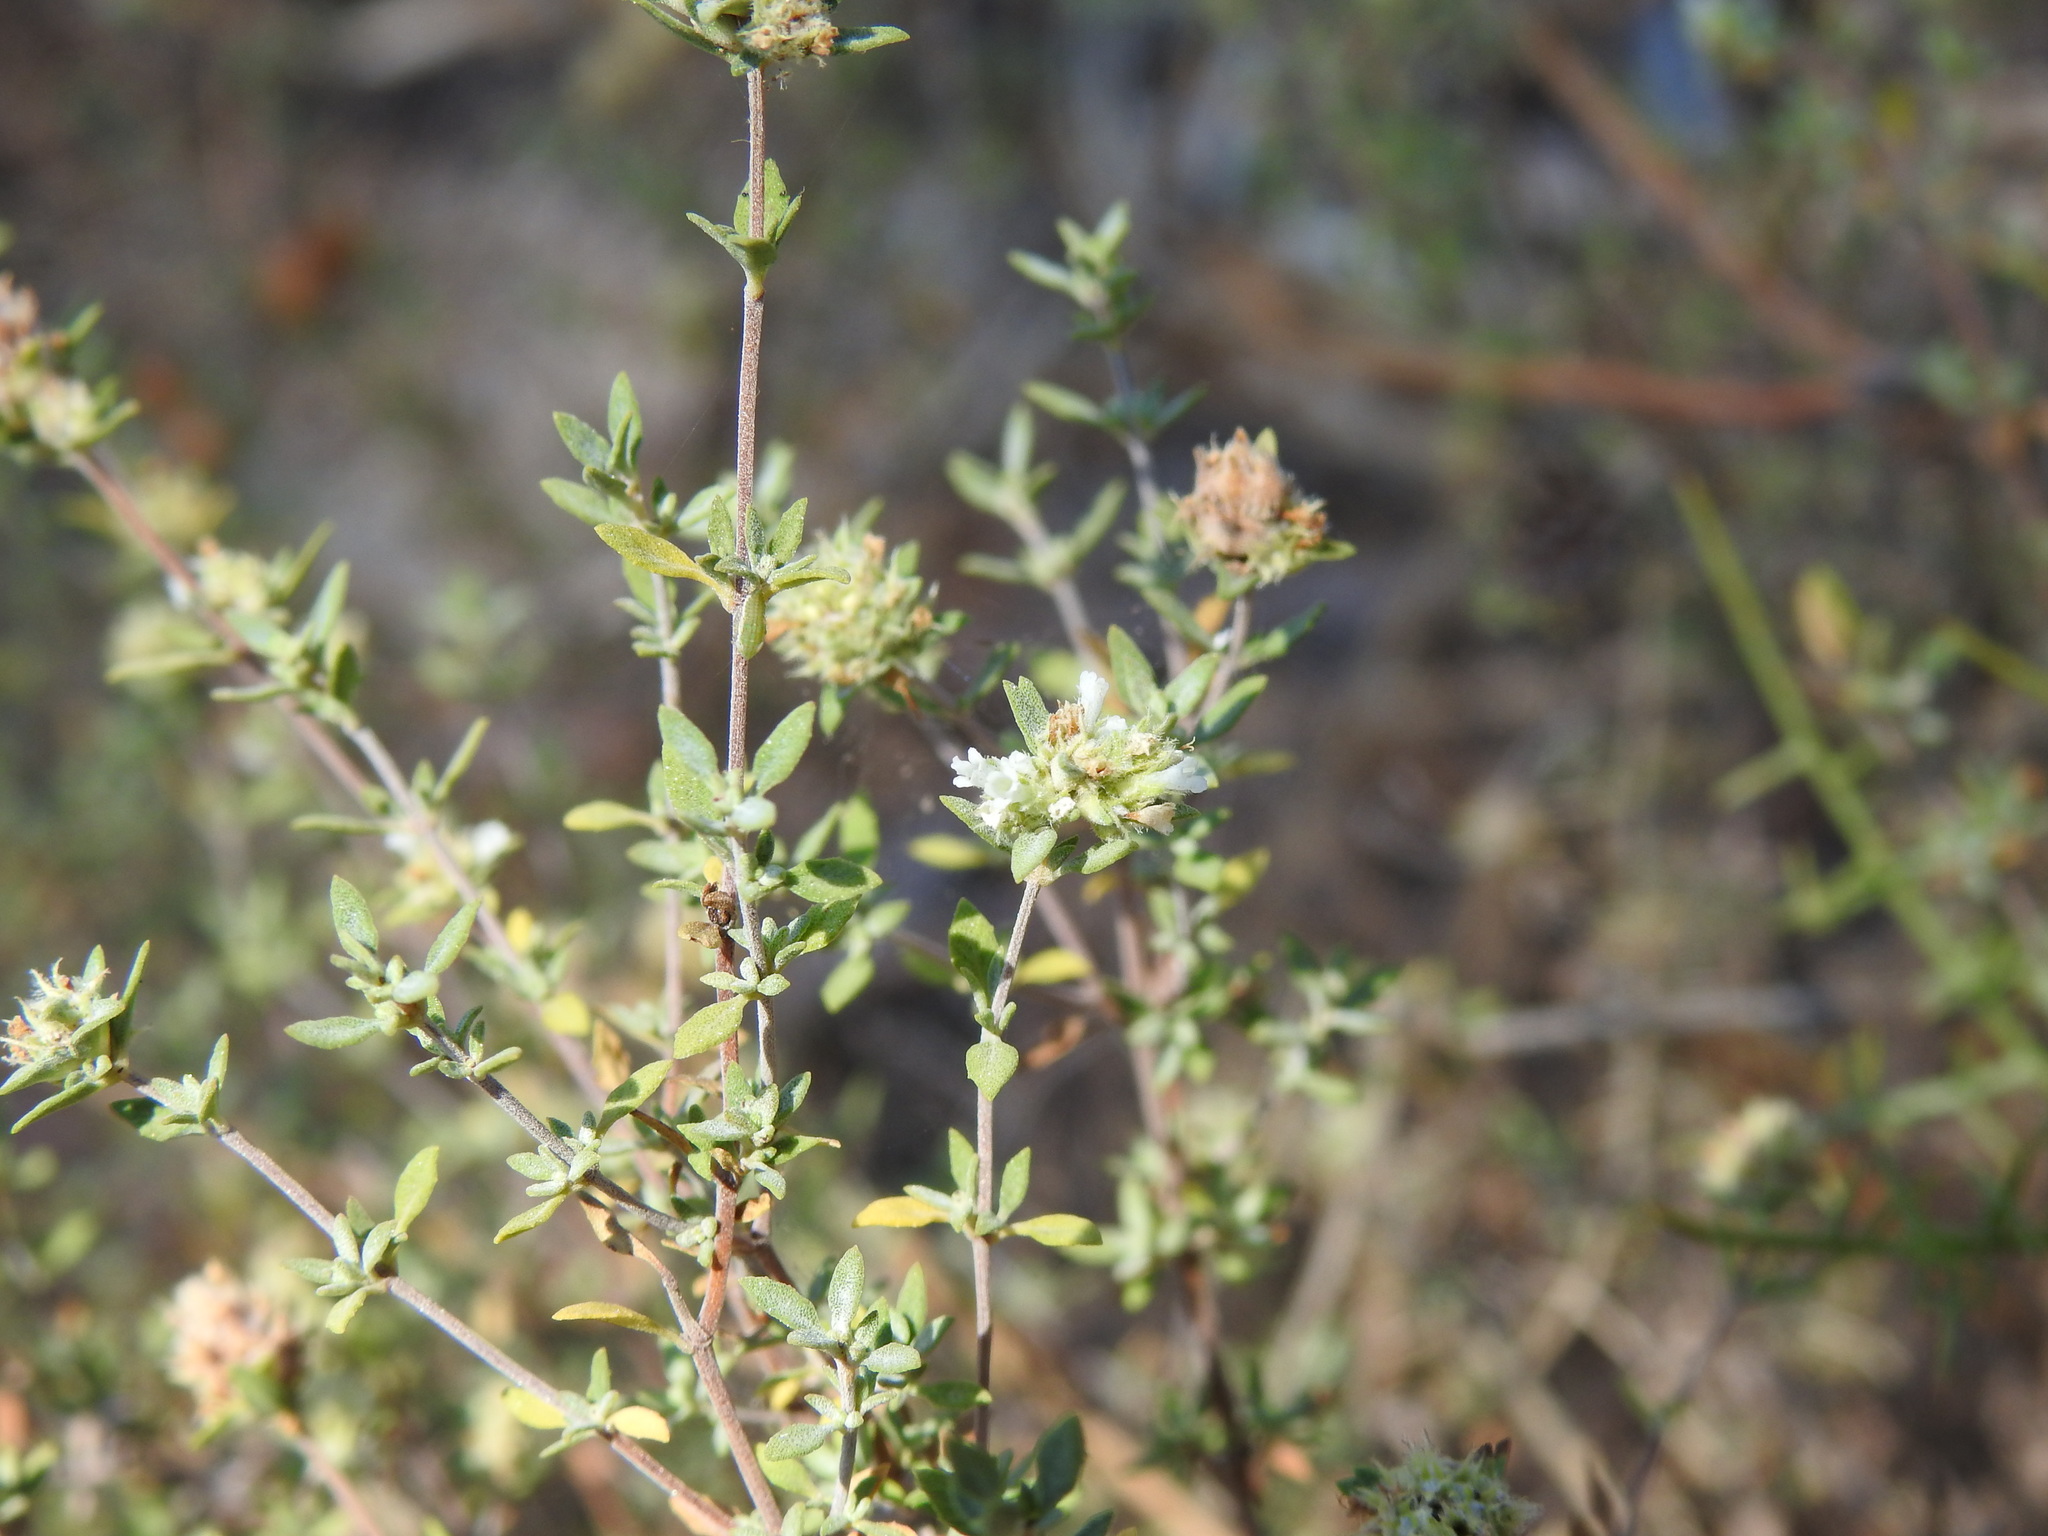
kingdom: Plantae
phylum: Tracheophyta
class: Magnoliopsida
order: Lamiales
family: Lamiaceae
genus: Thymus
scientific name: Thymus albicans
